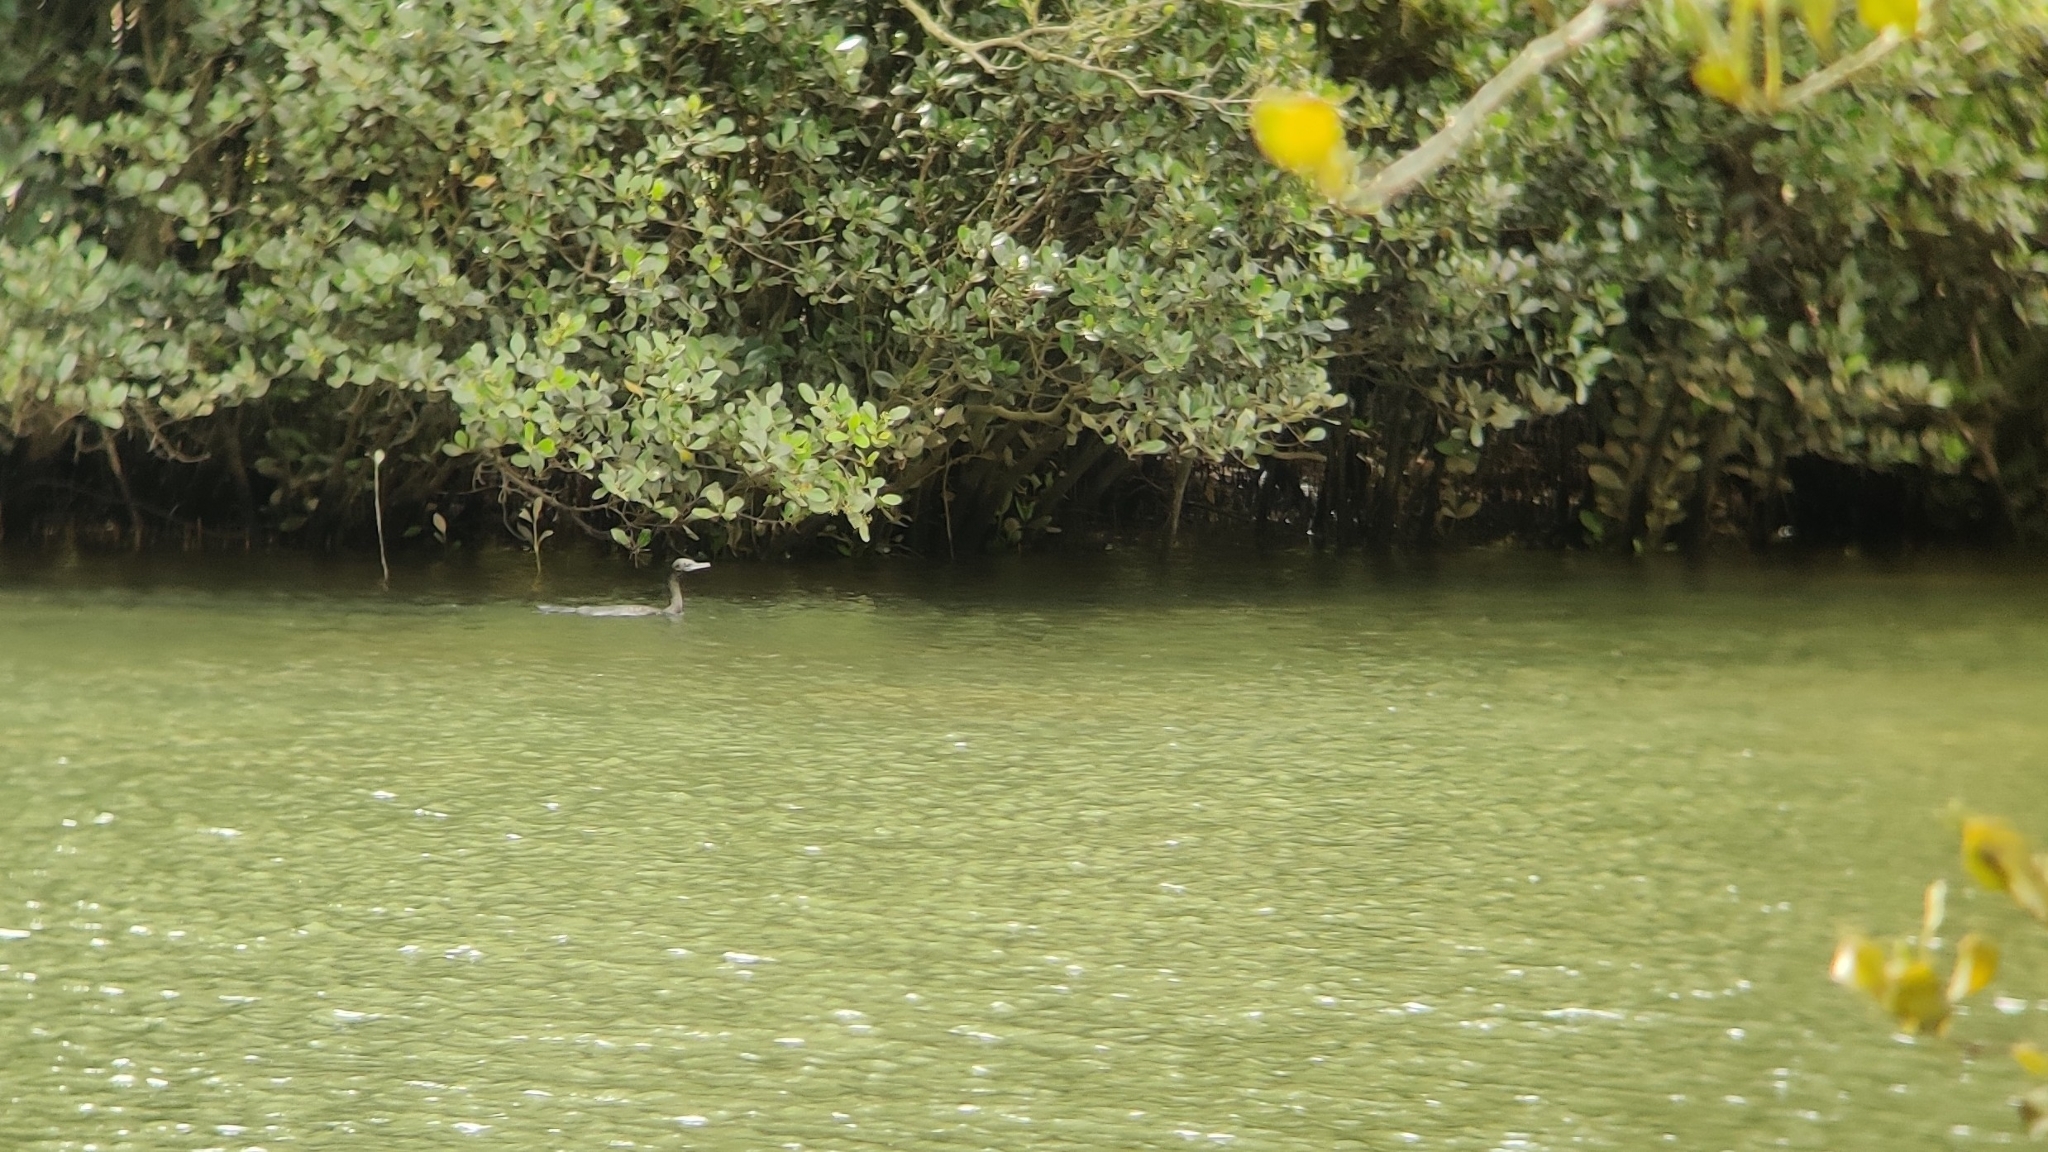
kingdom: Animalia
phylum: Chordata
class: Aves
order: Suliformes
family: Phalacrocoracidae
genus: Phalacrocorax
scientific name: Phalacrocorax sulcirostris
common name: Little black cormorant
